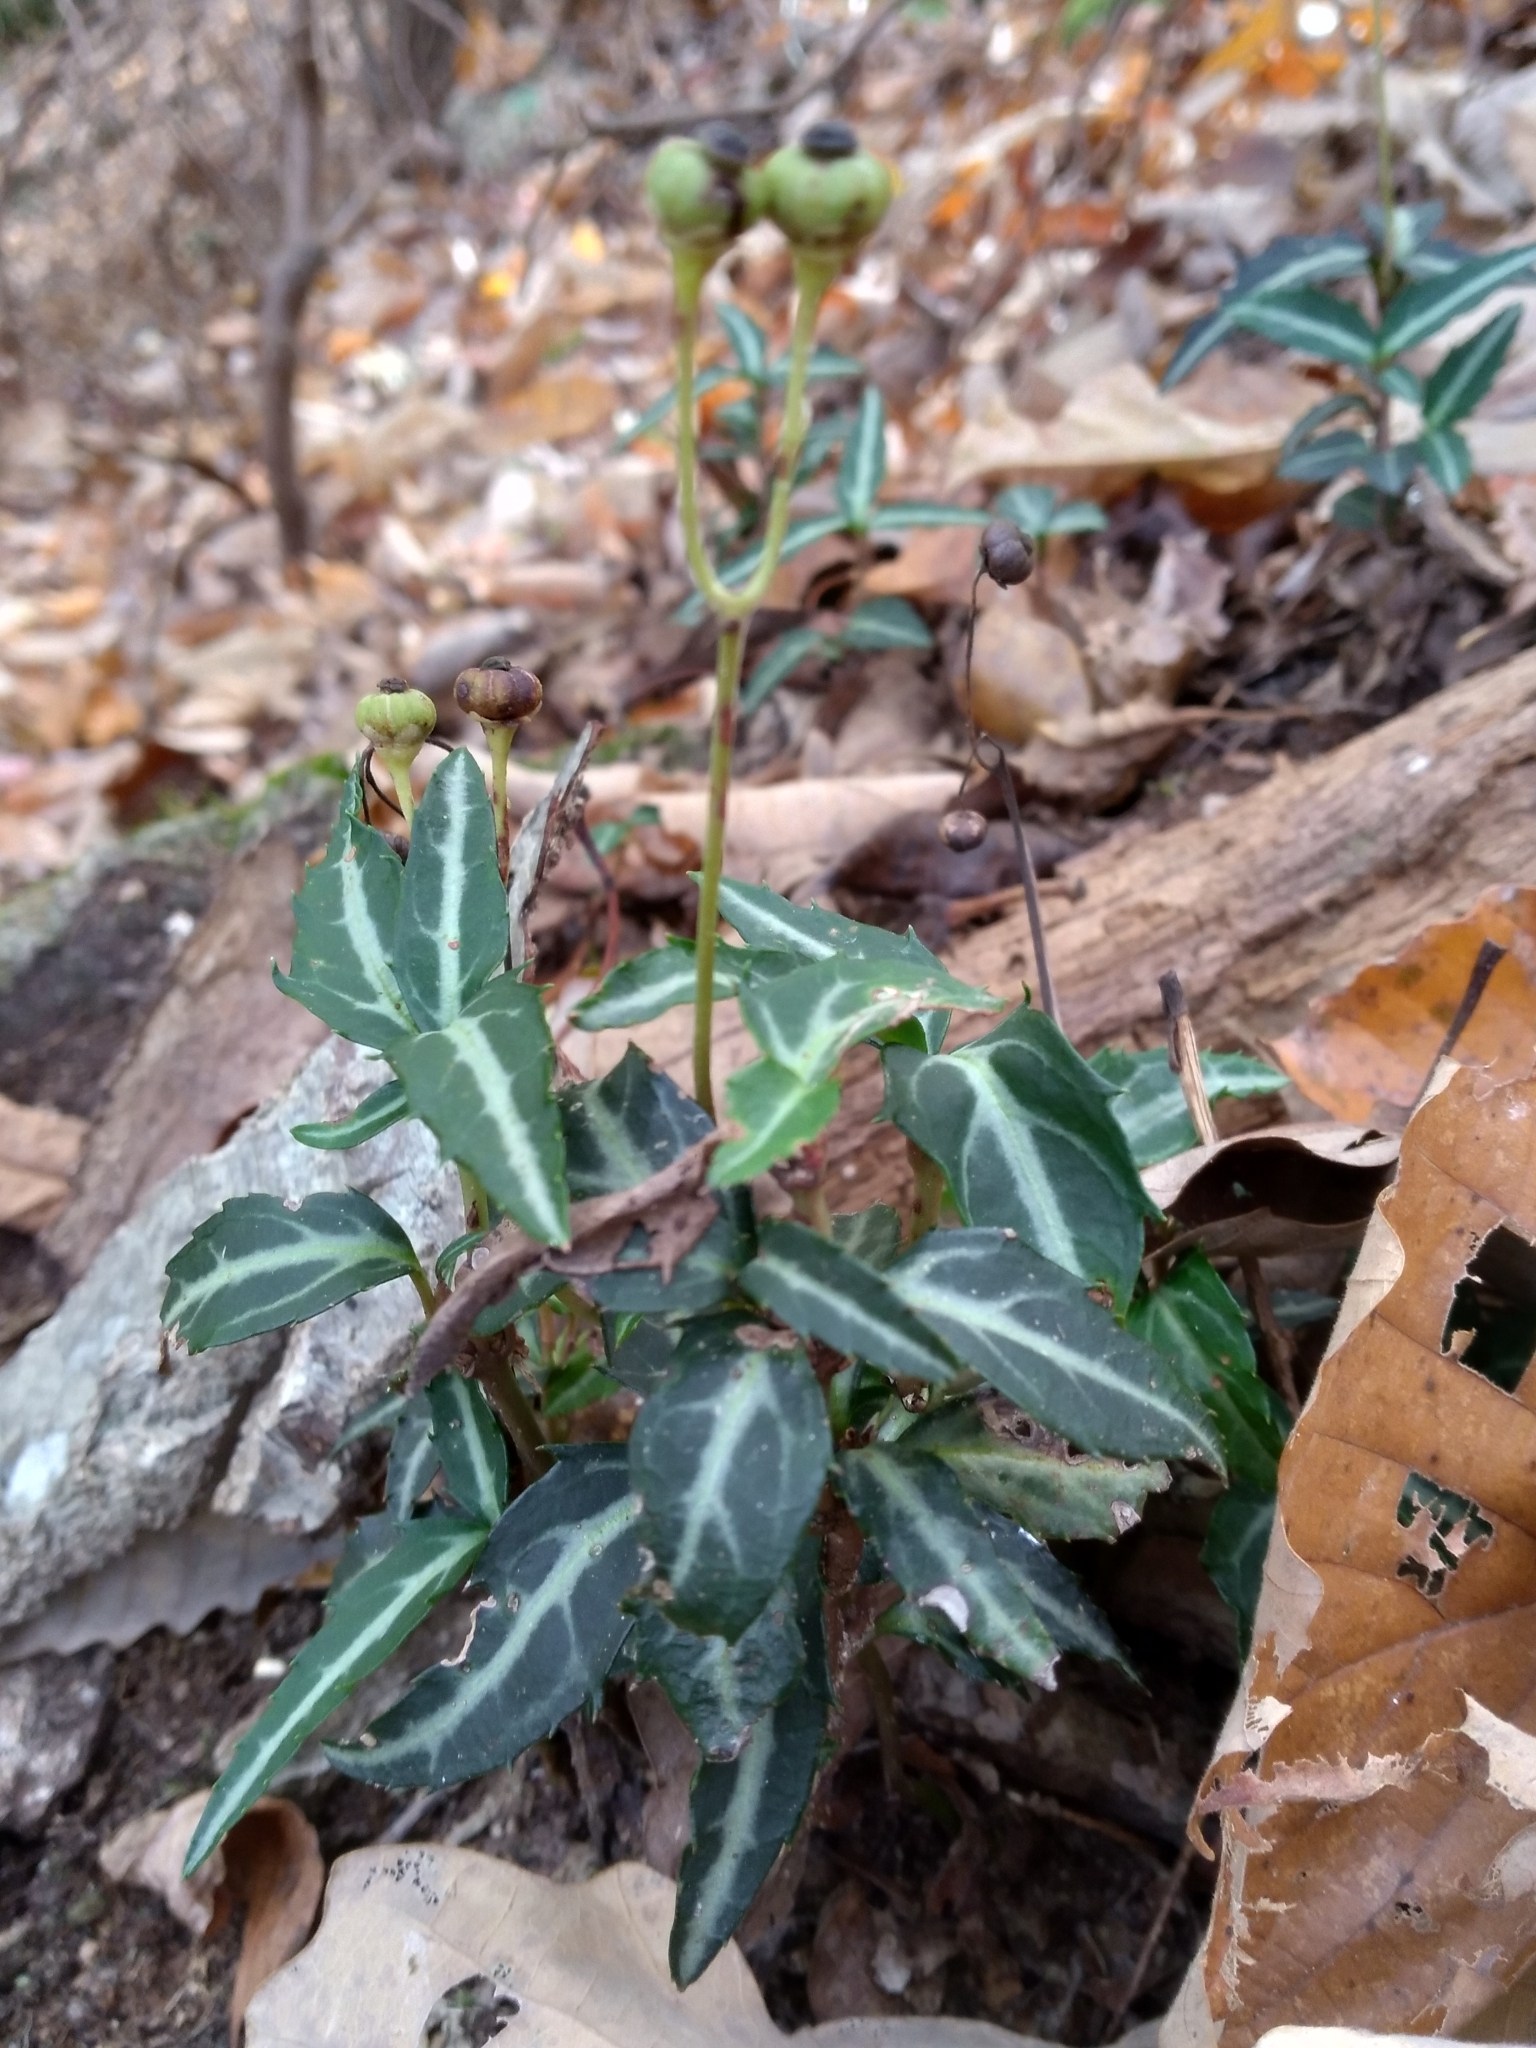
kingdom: Plantae
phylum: Tracheophyta
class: Magnoliopsida
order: Ericales
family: Ericaceae
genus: Chimaphila
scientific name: Chimaphila maculata
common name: Spotted pipsissewa
